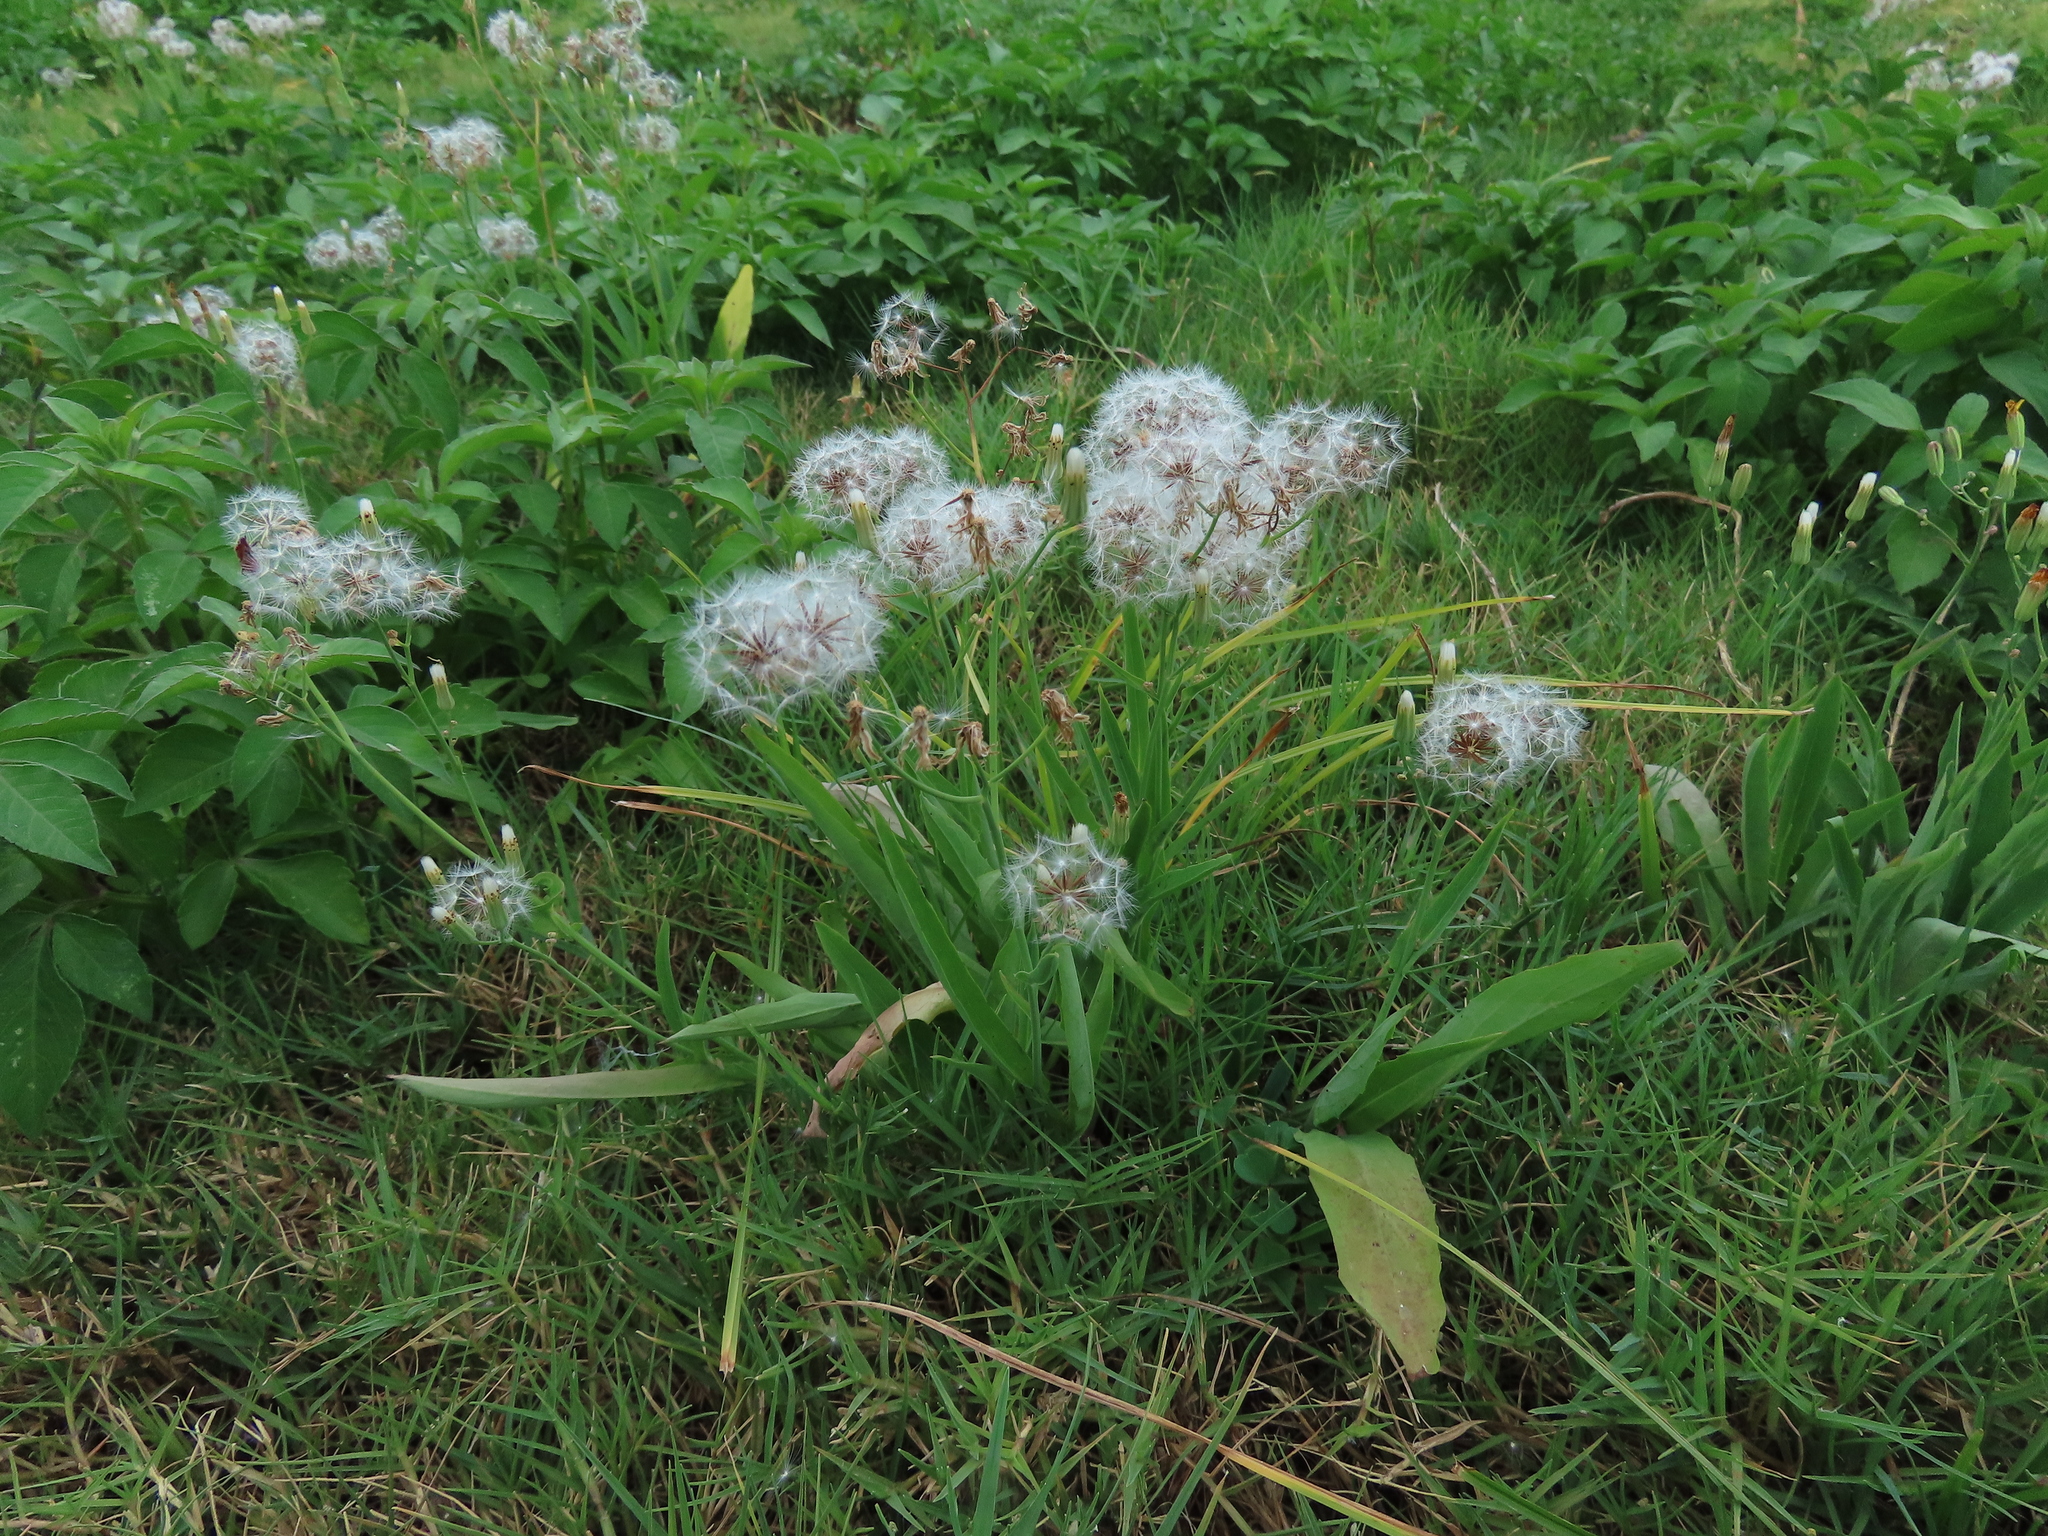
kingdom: Plantae
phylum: Tracheophyta
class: Magnoliopsida
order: Asterales
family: Asteraceae
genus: Ixeris
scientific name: Ixeris chinensis
